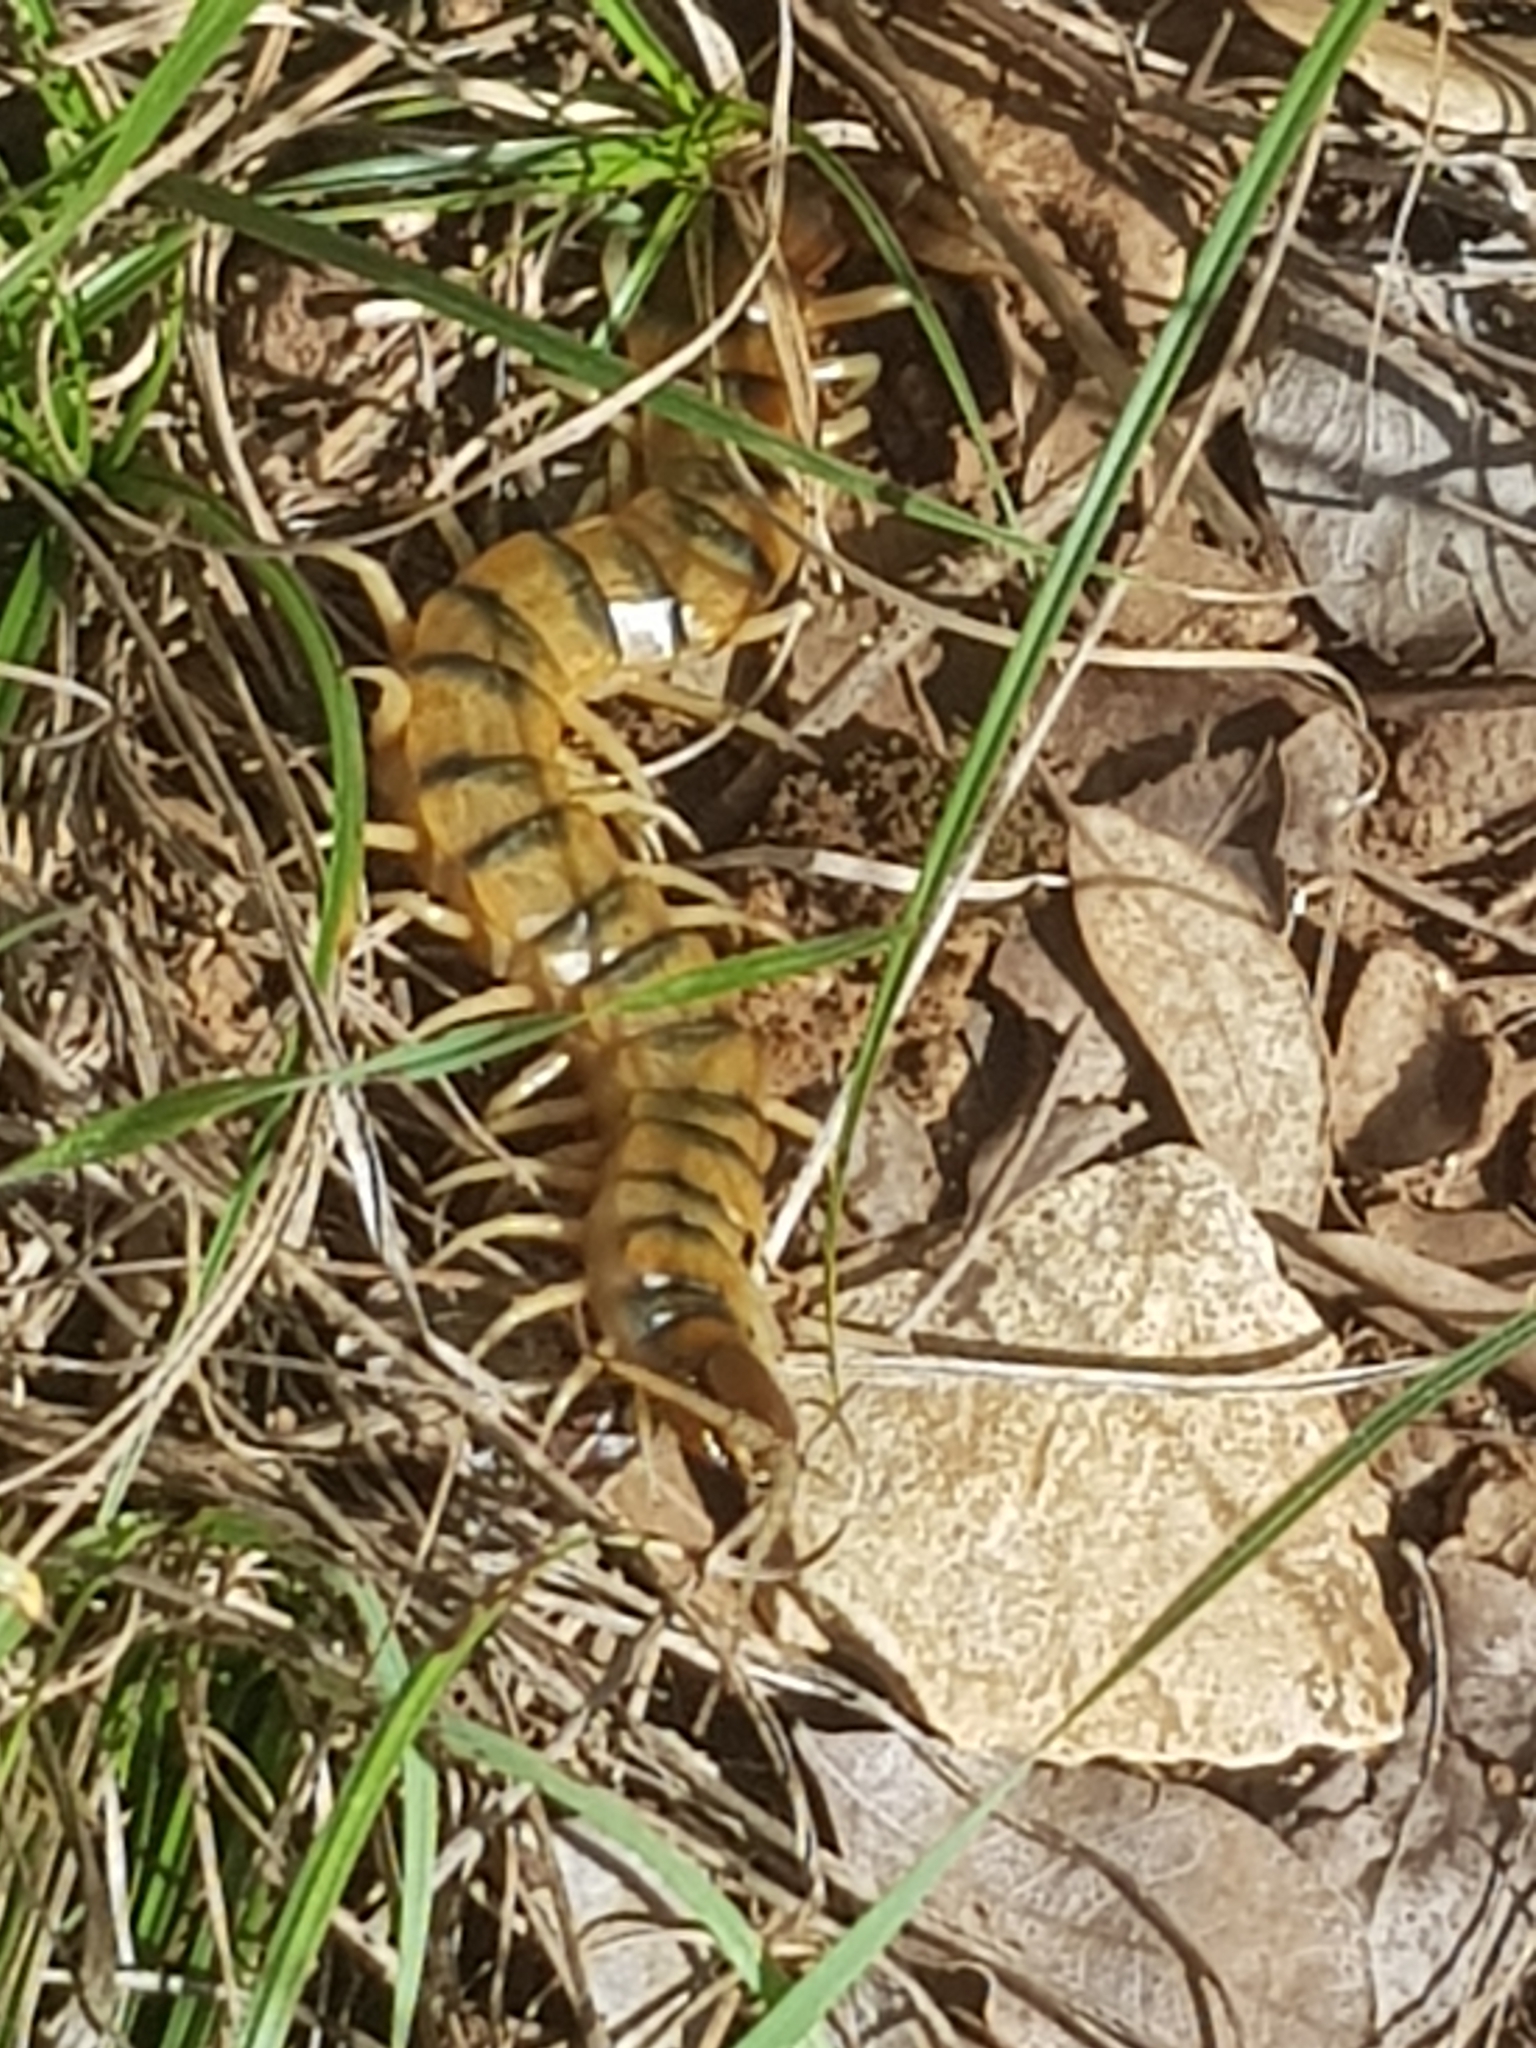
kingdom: Animalia
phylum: Arthropoda
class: Chilopoda
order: Scolopendromorpha
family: Scolopendridae
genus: Scolopendra
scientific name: Scolopendra cingulata
